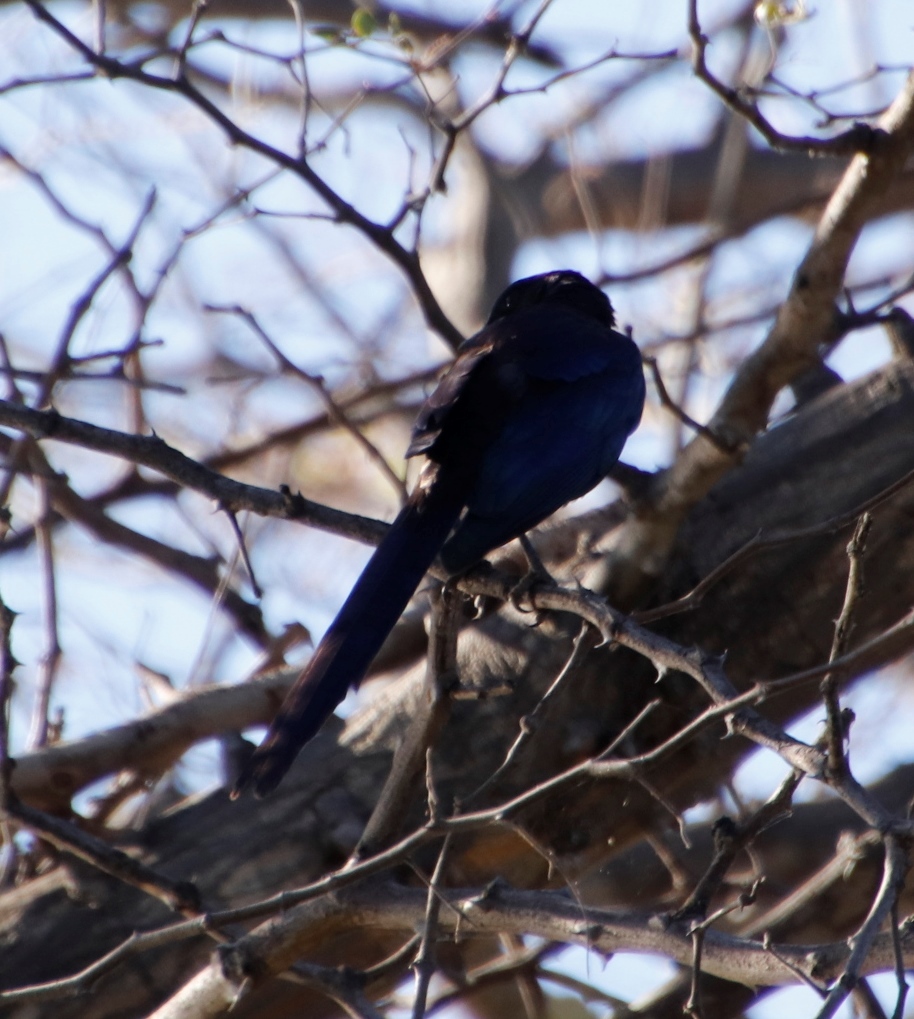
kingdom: Animalia
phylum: Chordata
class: Aves
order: Passeriformes
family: Sturnidae
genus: Lamprotornis
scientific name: Lamprotornis mevesii
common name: Meves's starling
